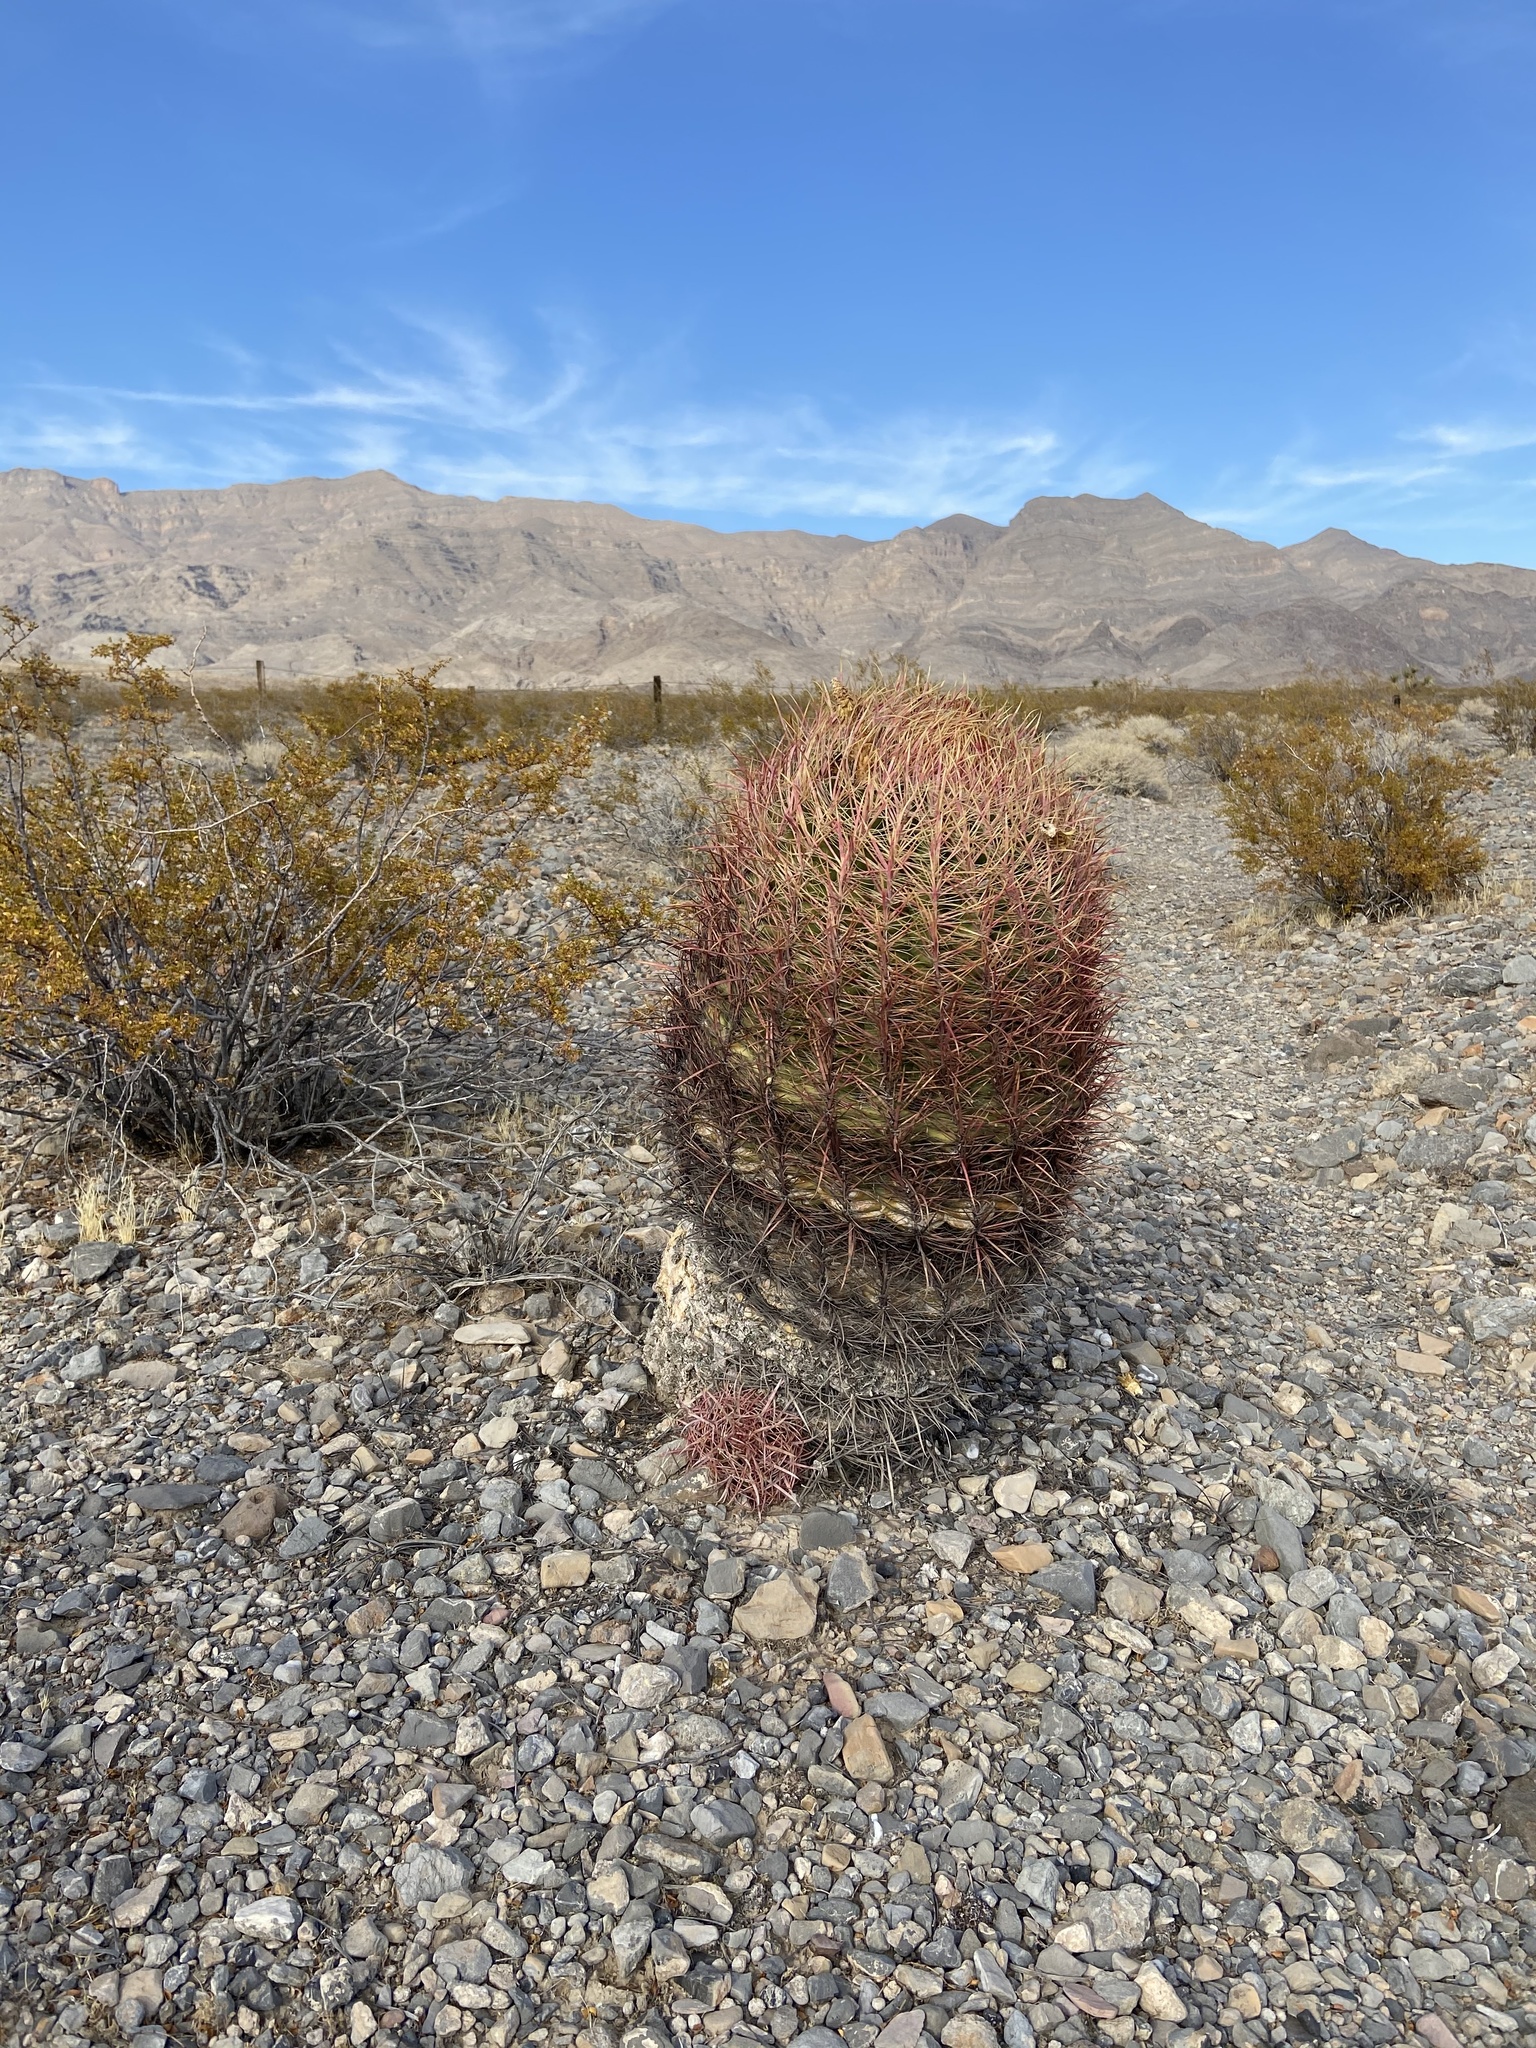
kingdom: Plantae
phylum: Tracheophyta
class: Magnoliopsida
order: Caryophyllales
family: Cactaceae
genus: Ferocactus
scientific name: Ferocactus cylindraceus
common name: California barrel cactus
